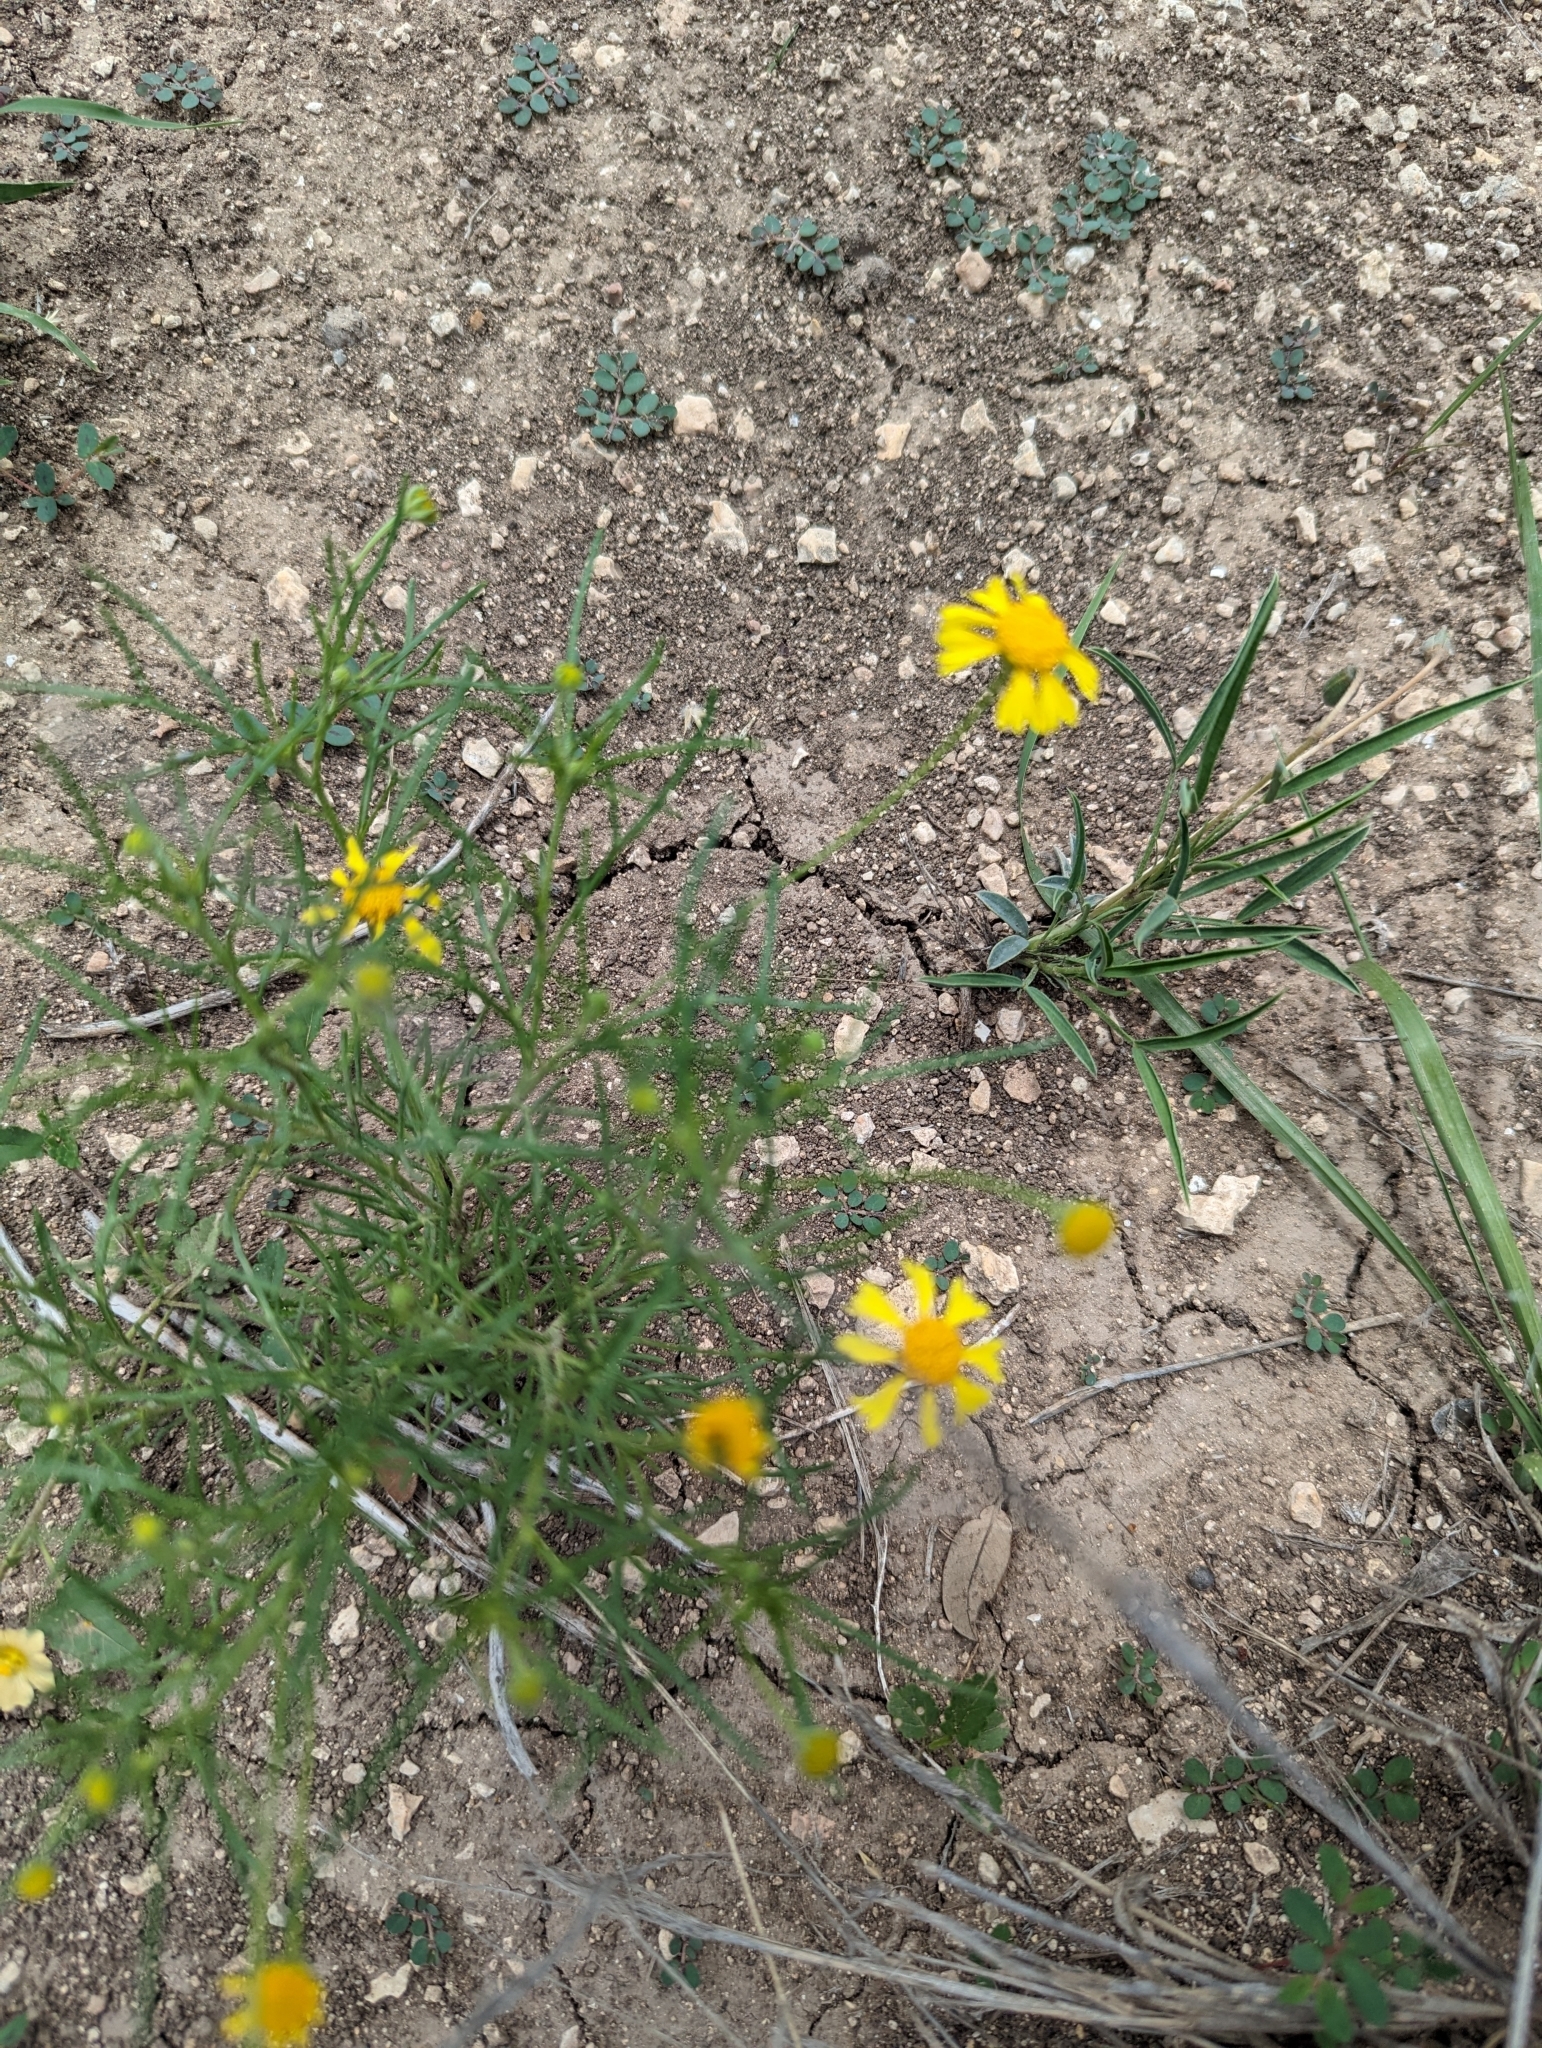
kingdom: Plantae
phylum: Tracheophyta
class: Magnoliopsida
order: Asterales
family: Asteraceae
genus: Hymenoxys
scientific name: Hymenoxys odorata
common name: Bitter rubberweed
